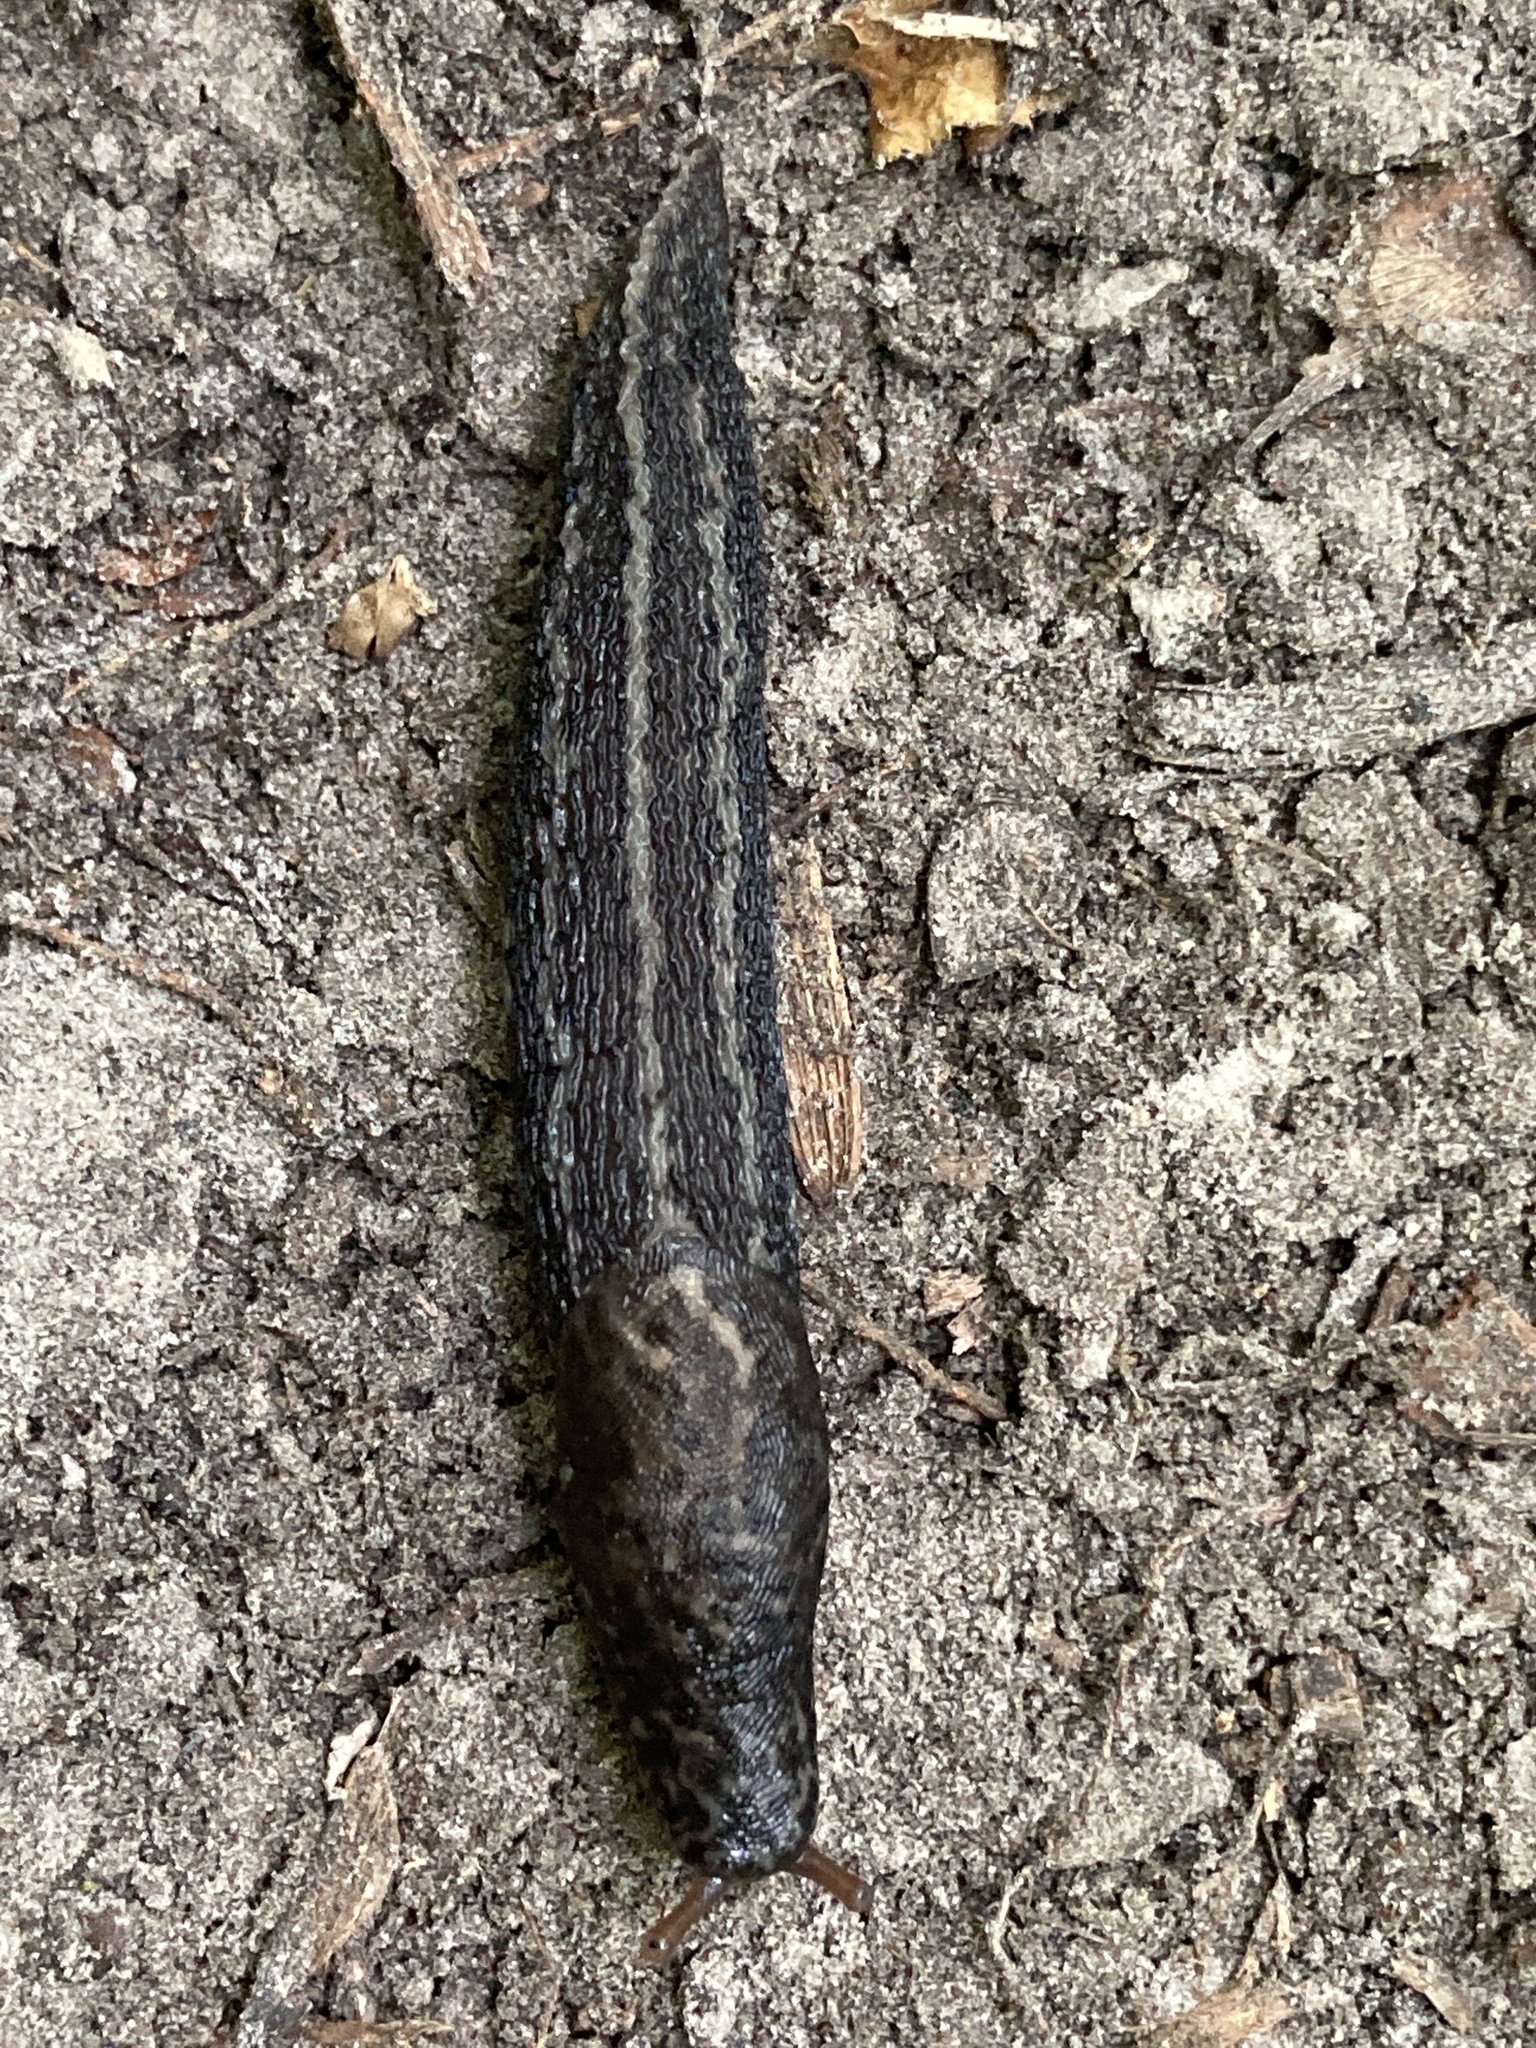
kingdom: Animalia
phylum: Mollusca
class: Gastropoda
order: Stylommatophora
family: Limacidae
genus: Limax
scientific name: Limax maximus
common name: Great grey slug
